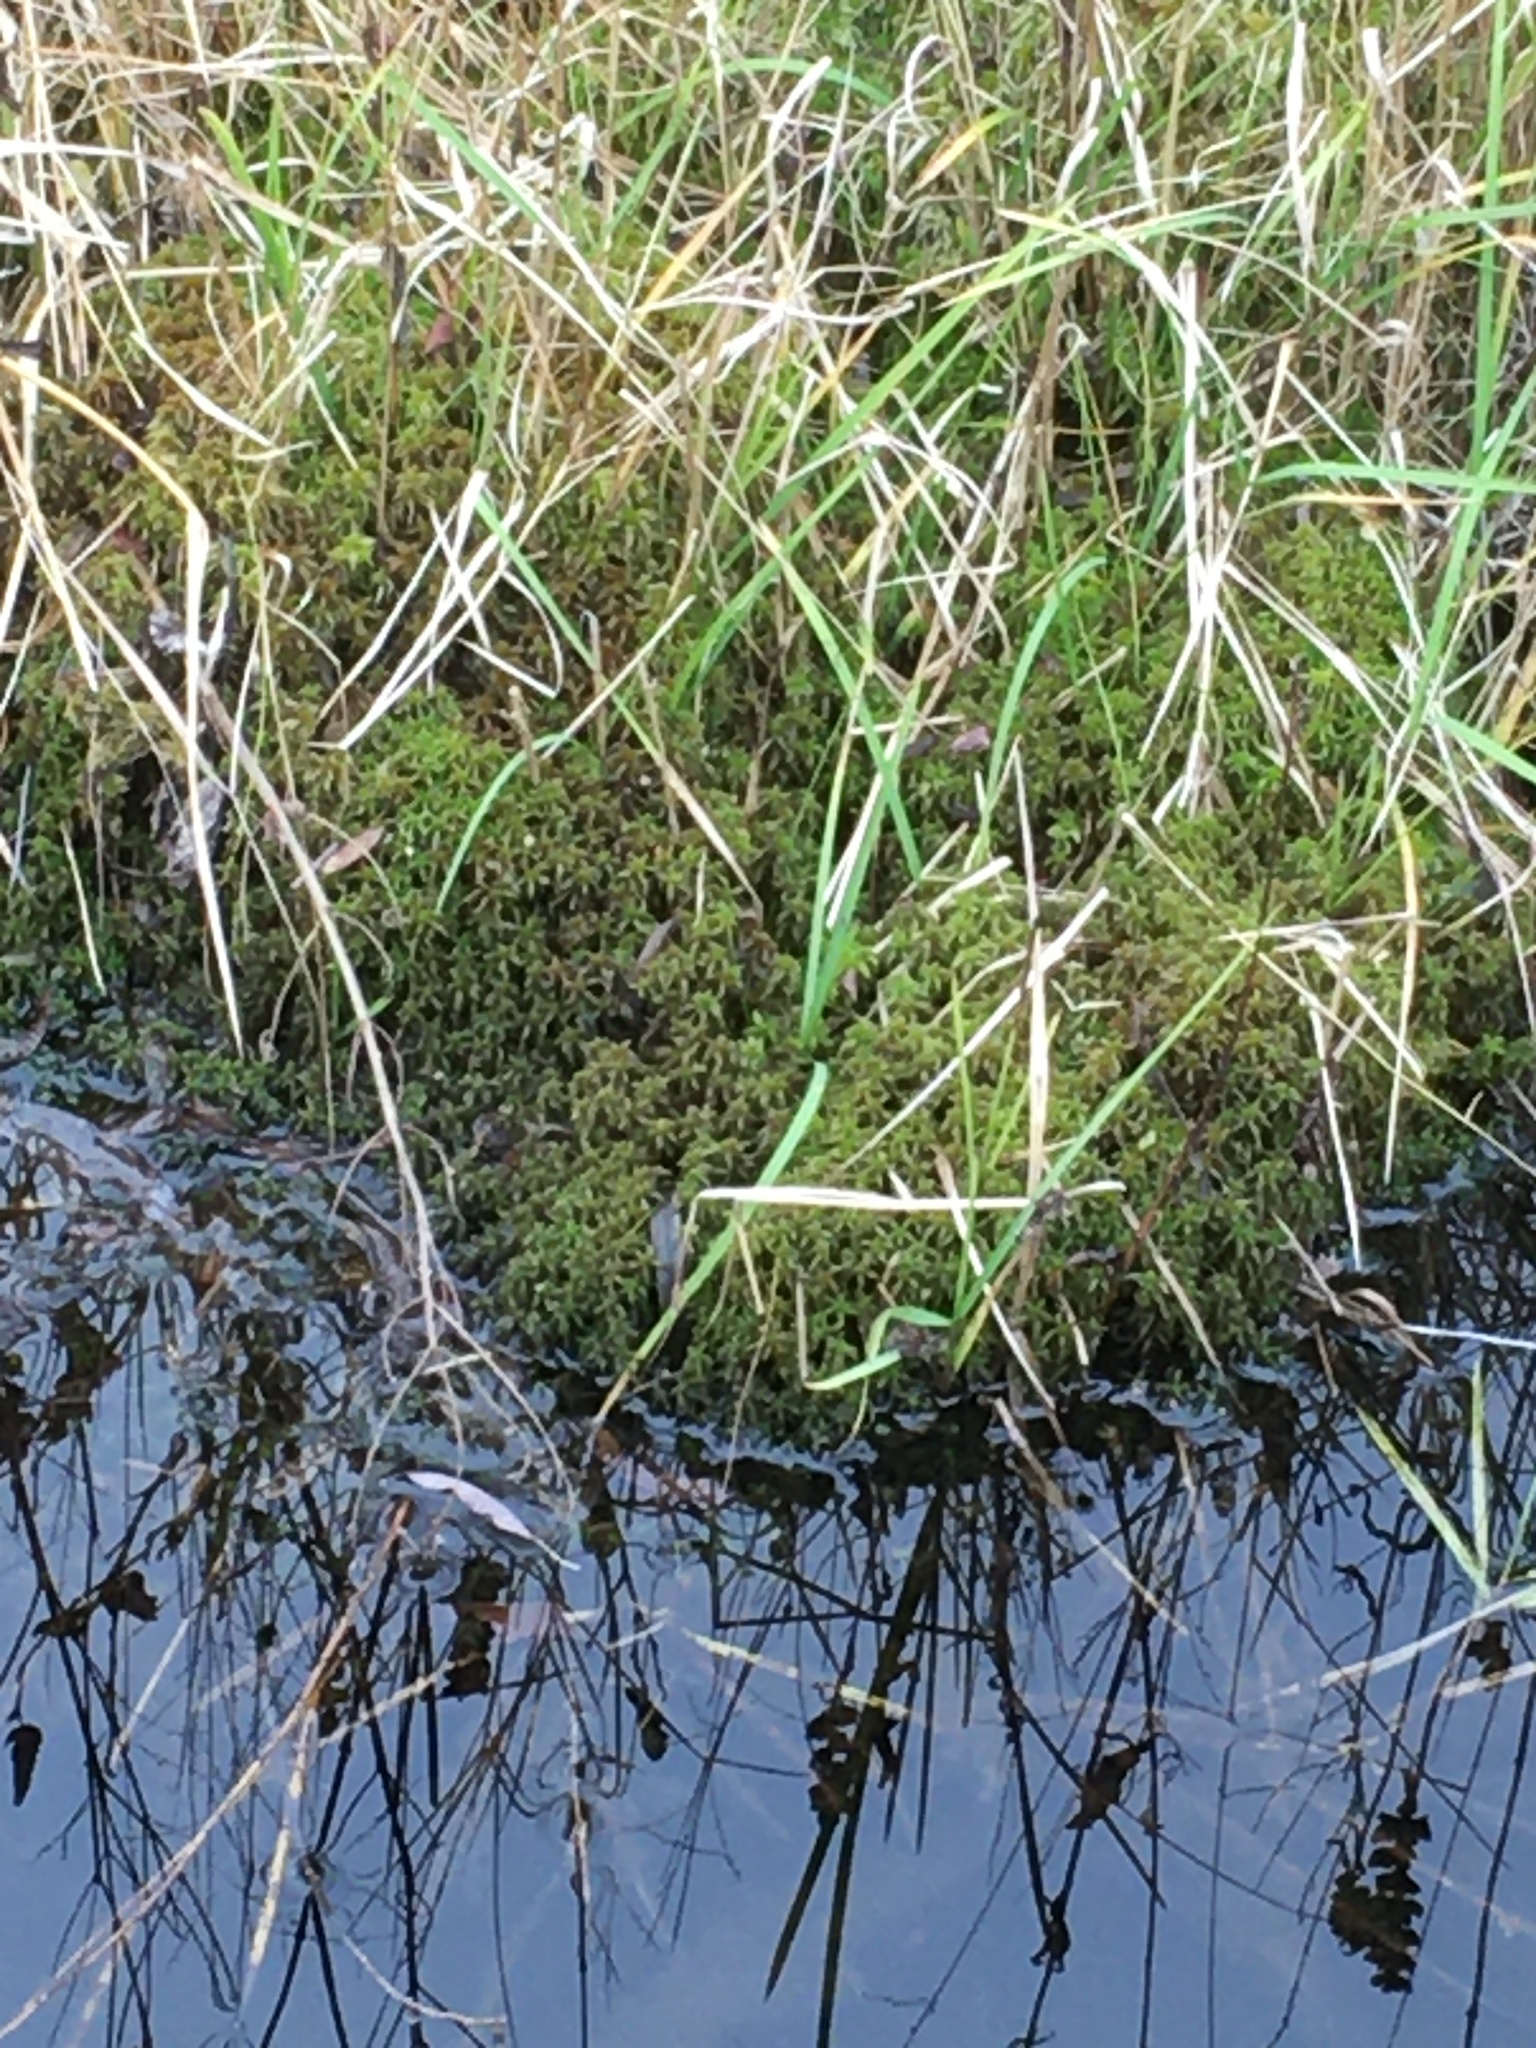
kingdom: Plantae
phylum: Bryophyta
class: Sphagnopsida
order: Sphagnales
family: Sphagnaceae
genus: Sphagnum
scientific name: Sphagnum
